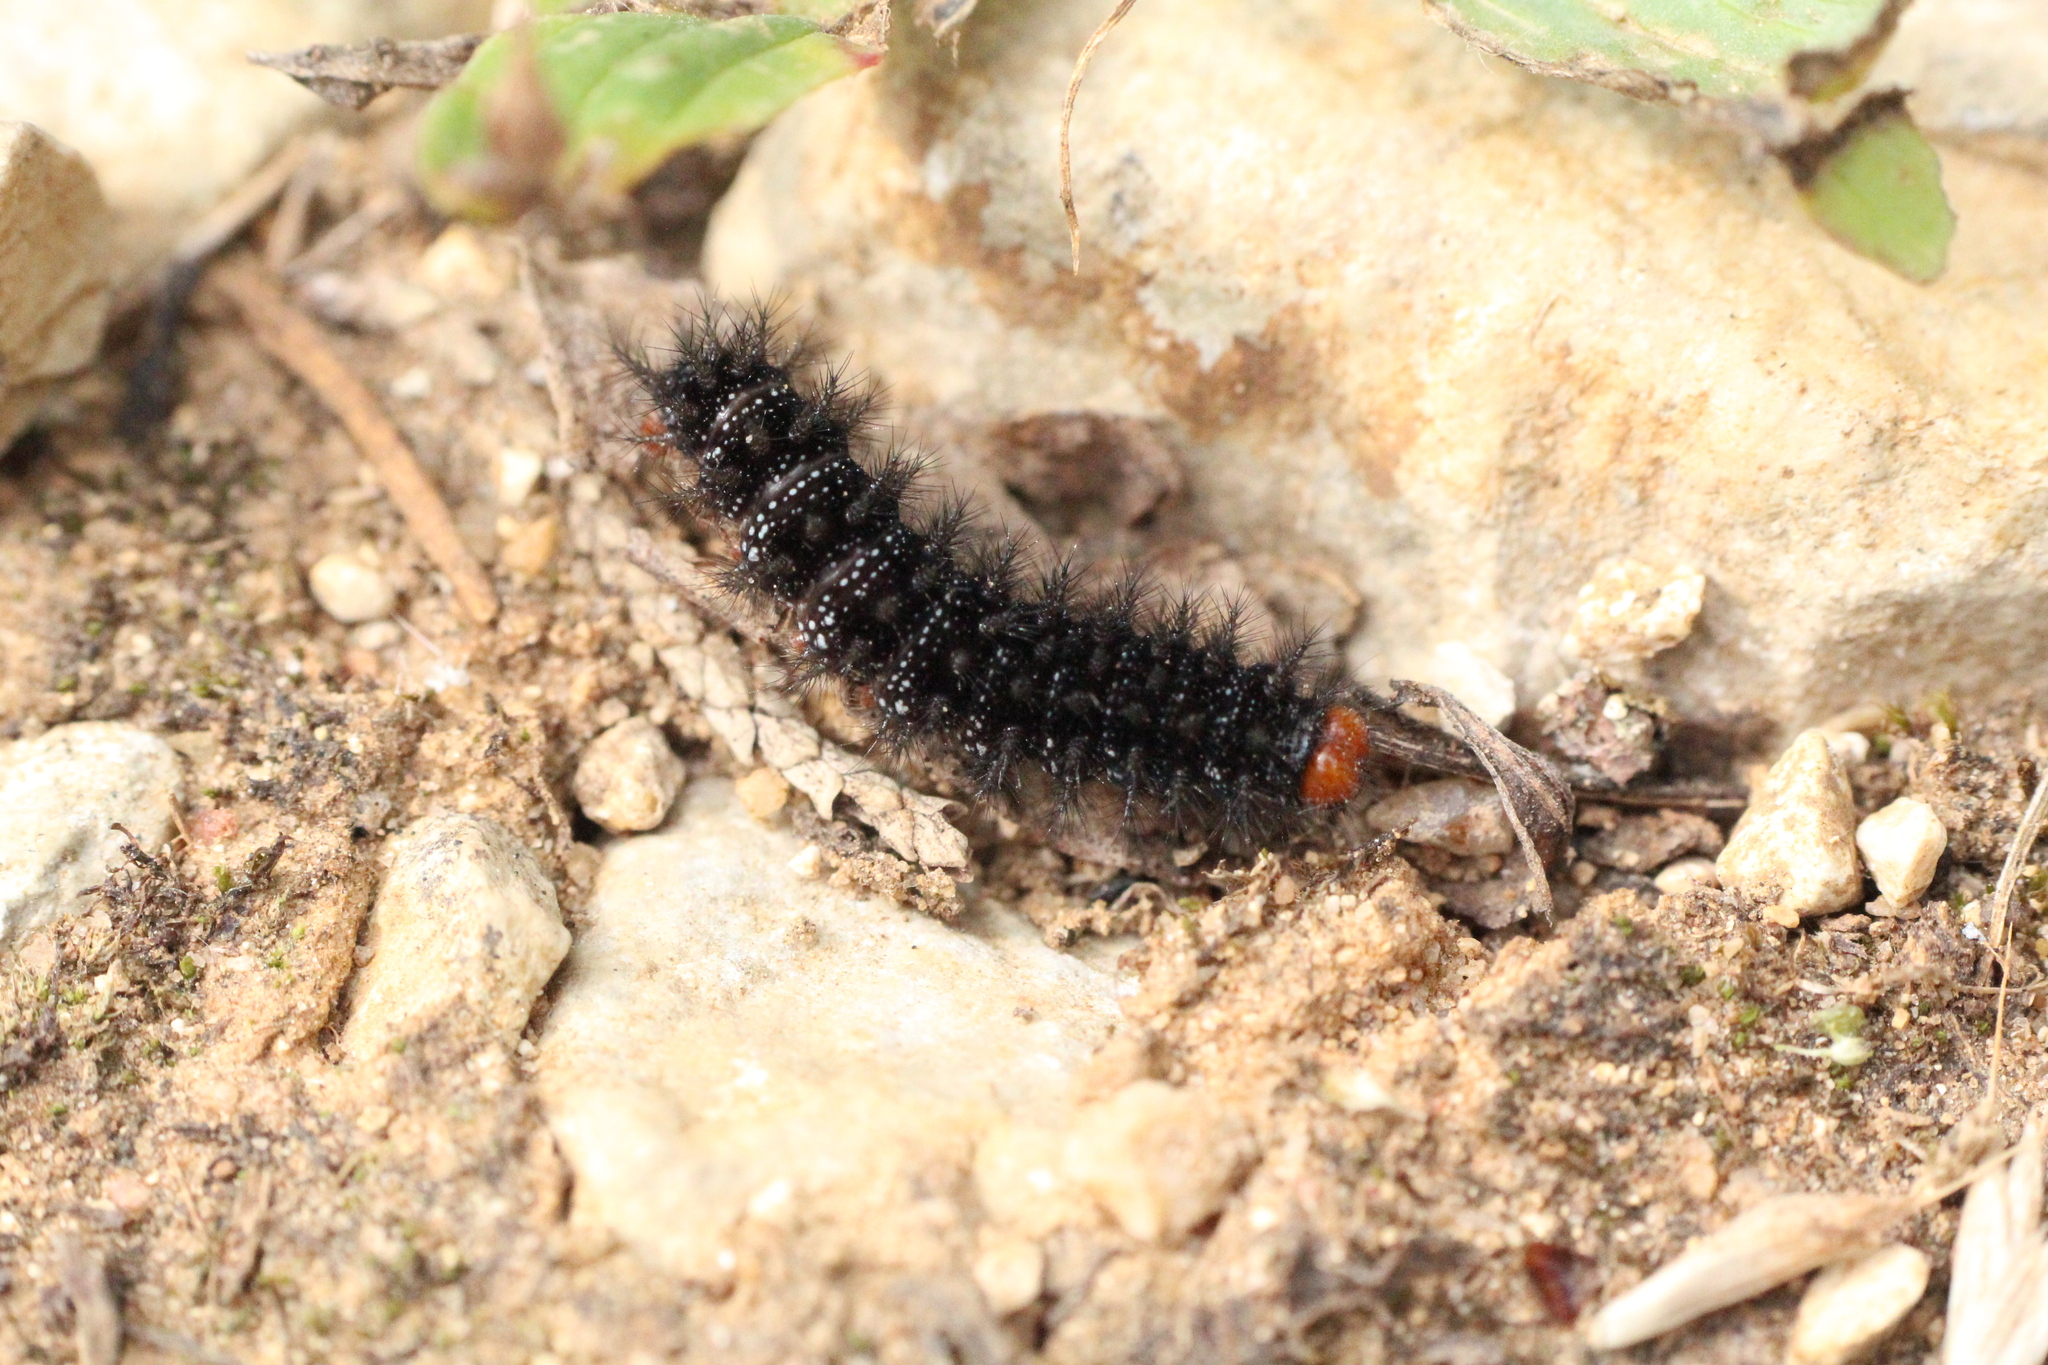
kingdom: Animalia
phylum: Arthropoda
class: Insecta
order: Lepidoptera
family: Nymphalidae
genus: Melitaea
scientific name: Melitaea cinxia
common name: Glanville fritillary
